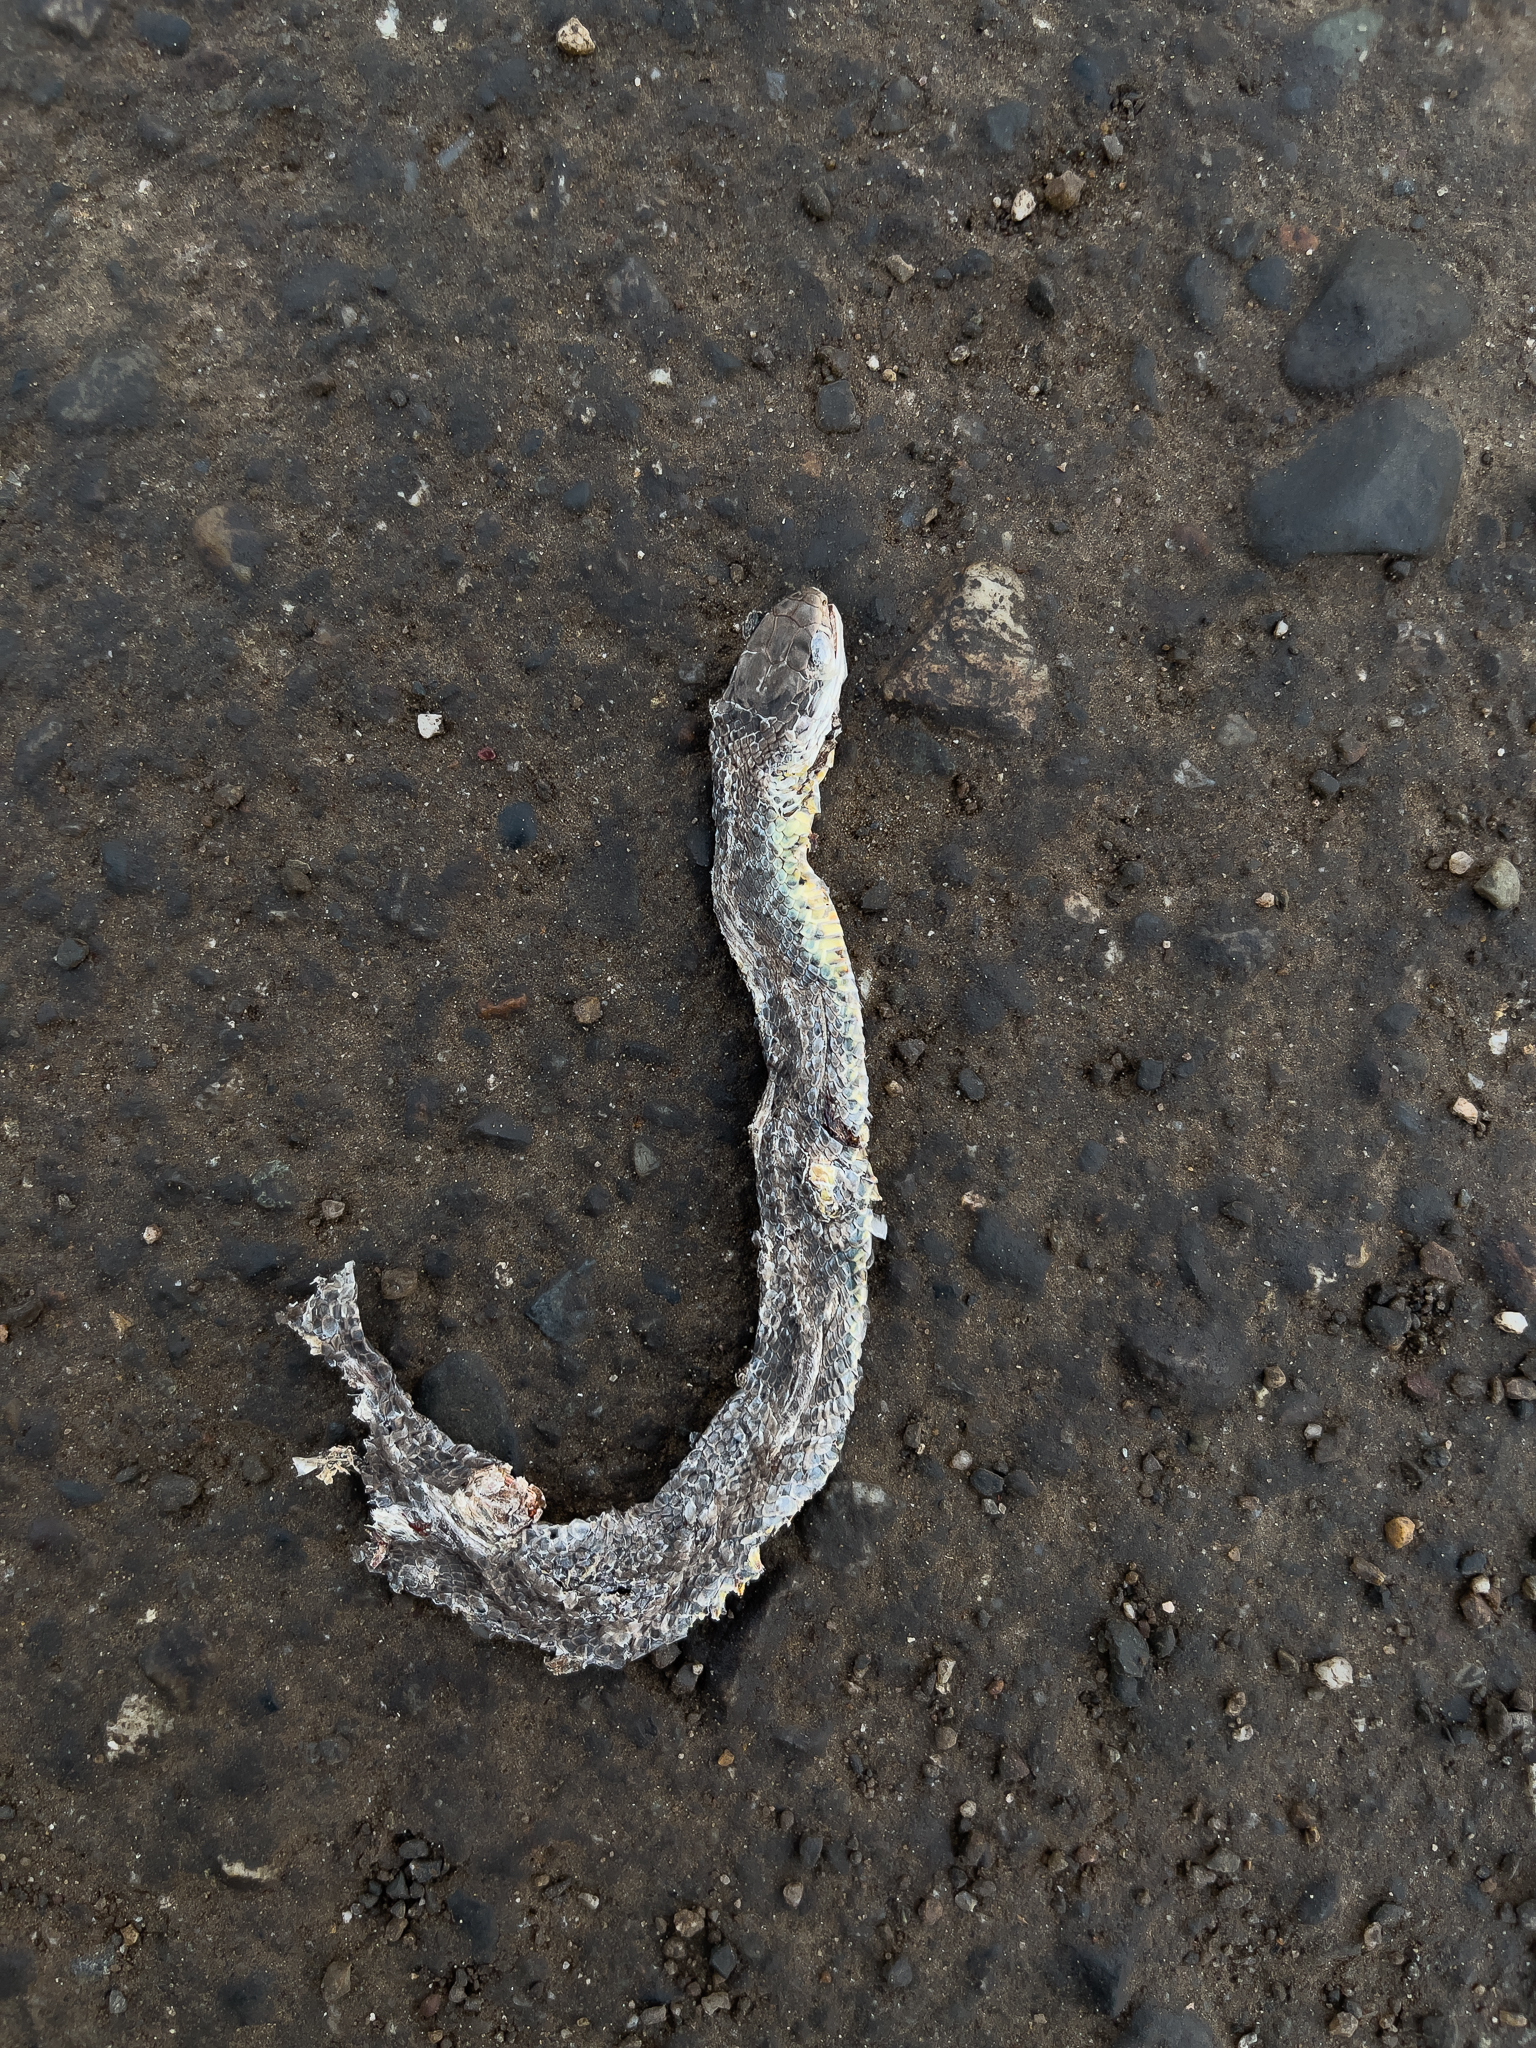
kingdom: Animalia
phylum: Chordata
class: Squamata
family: Colubridae
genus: Coluber
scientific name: Coluber constrictor
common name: Eastern racer
